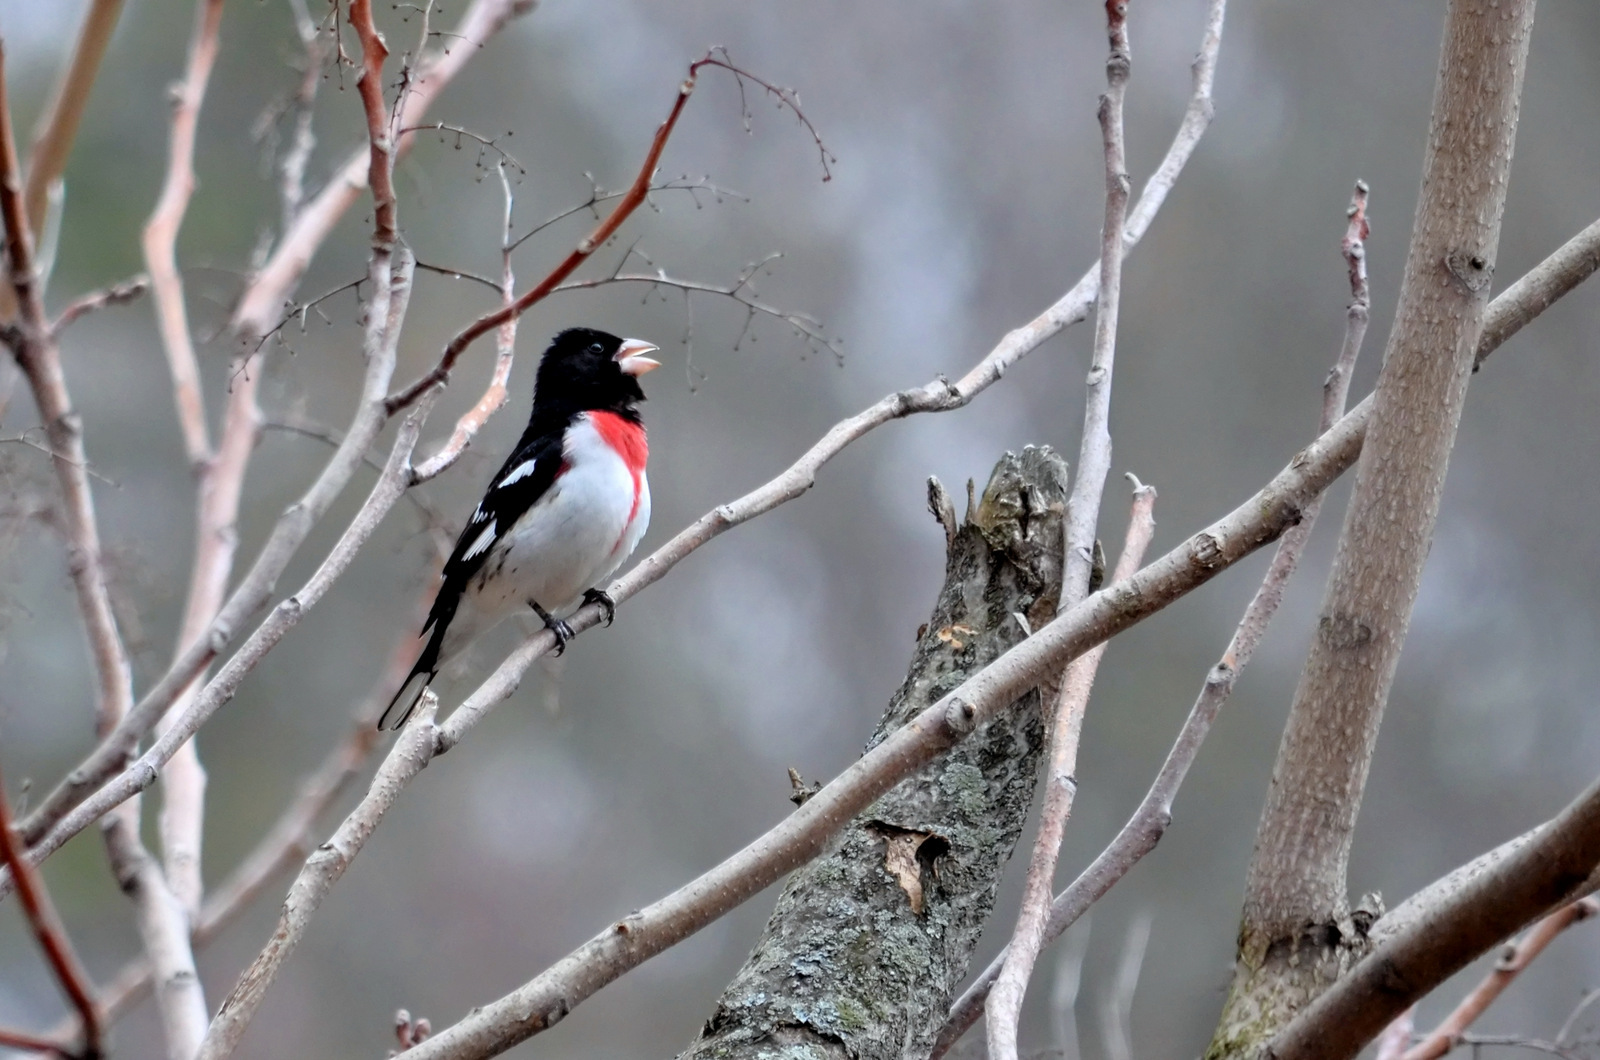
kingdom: Animalia
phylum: Chordata
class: Aves
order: Passeriformes
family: Cardinalidae
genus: Pheucticus
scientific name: Pheucticus ludovicianus
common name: Rose-breasted grosbeak
